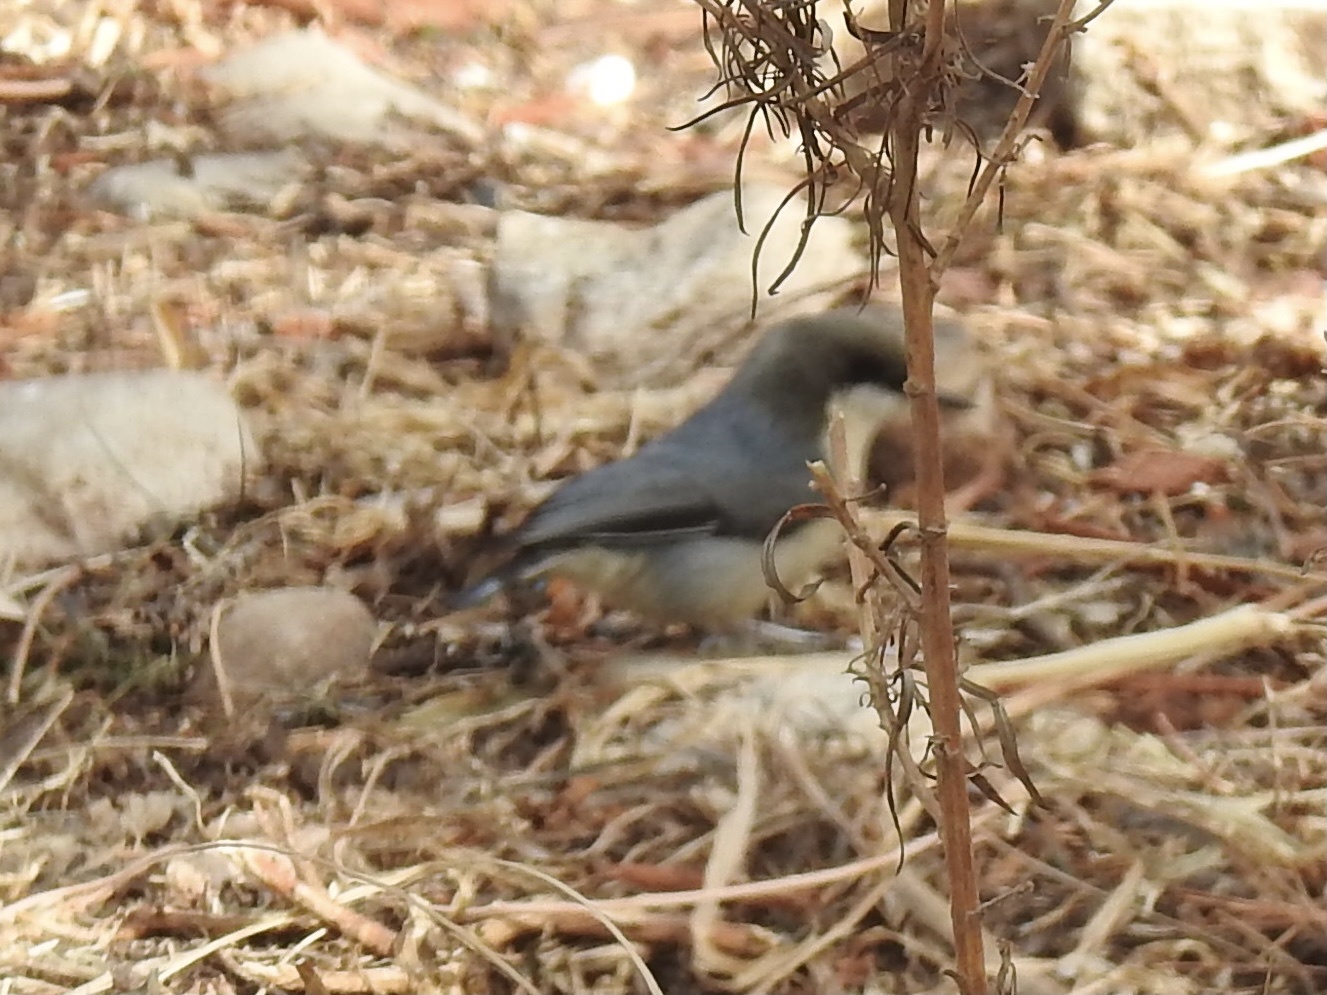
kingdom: Animalia
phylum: Chordata
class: Aves
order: Passeriformes
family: Sittidae
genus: Sitta
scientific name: Sitta pygmaea
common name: Pygmy nuthatch
